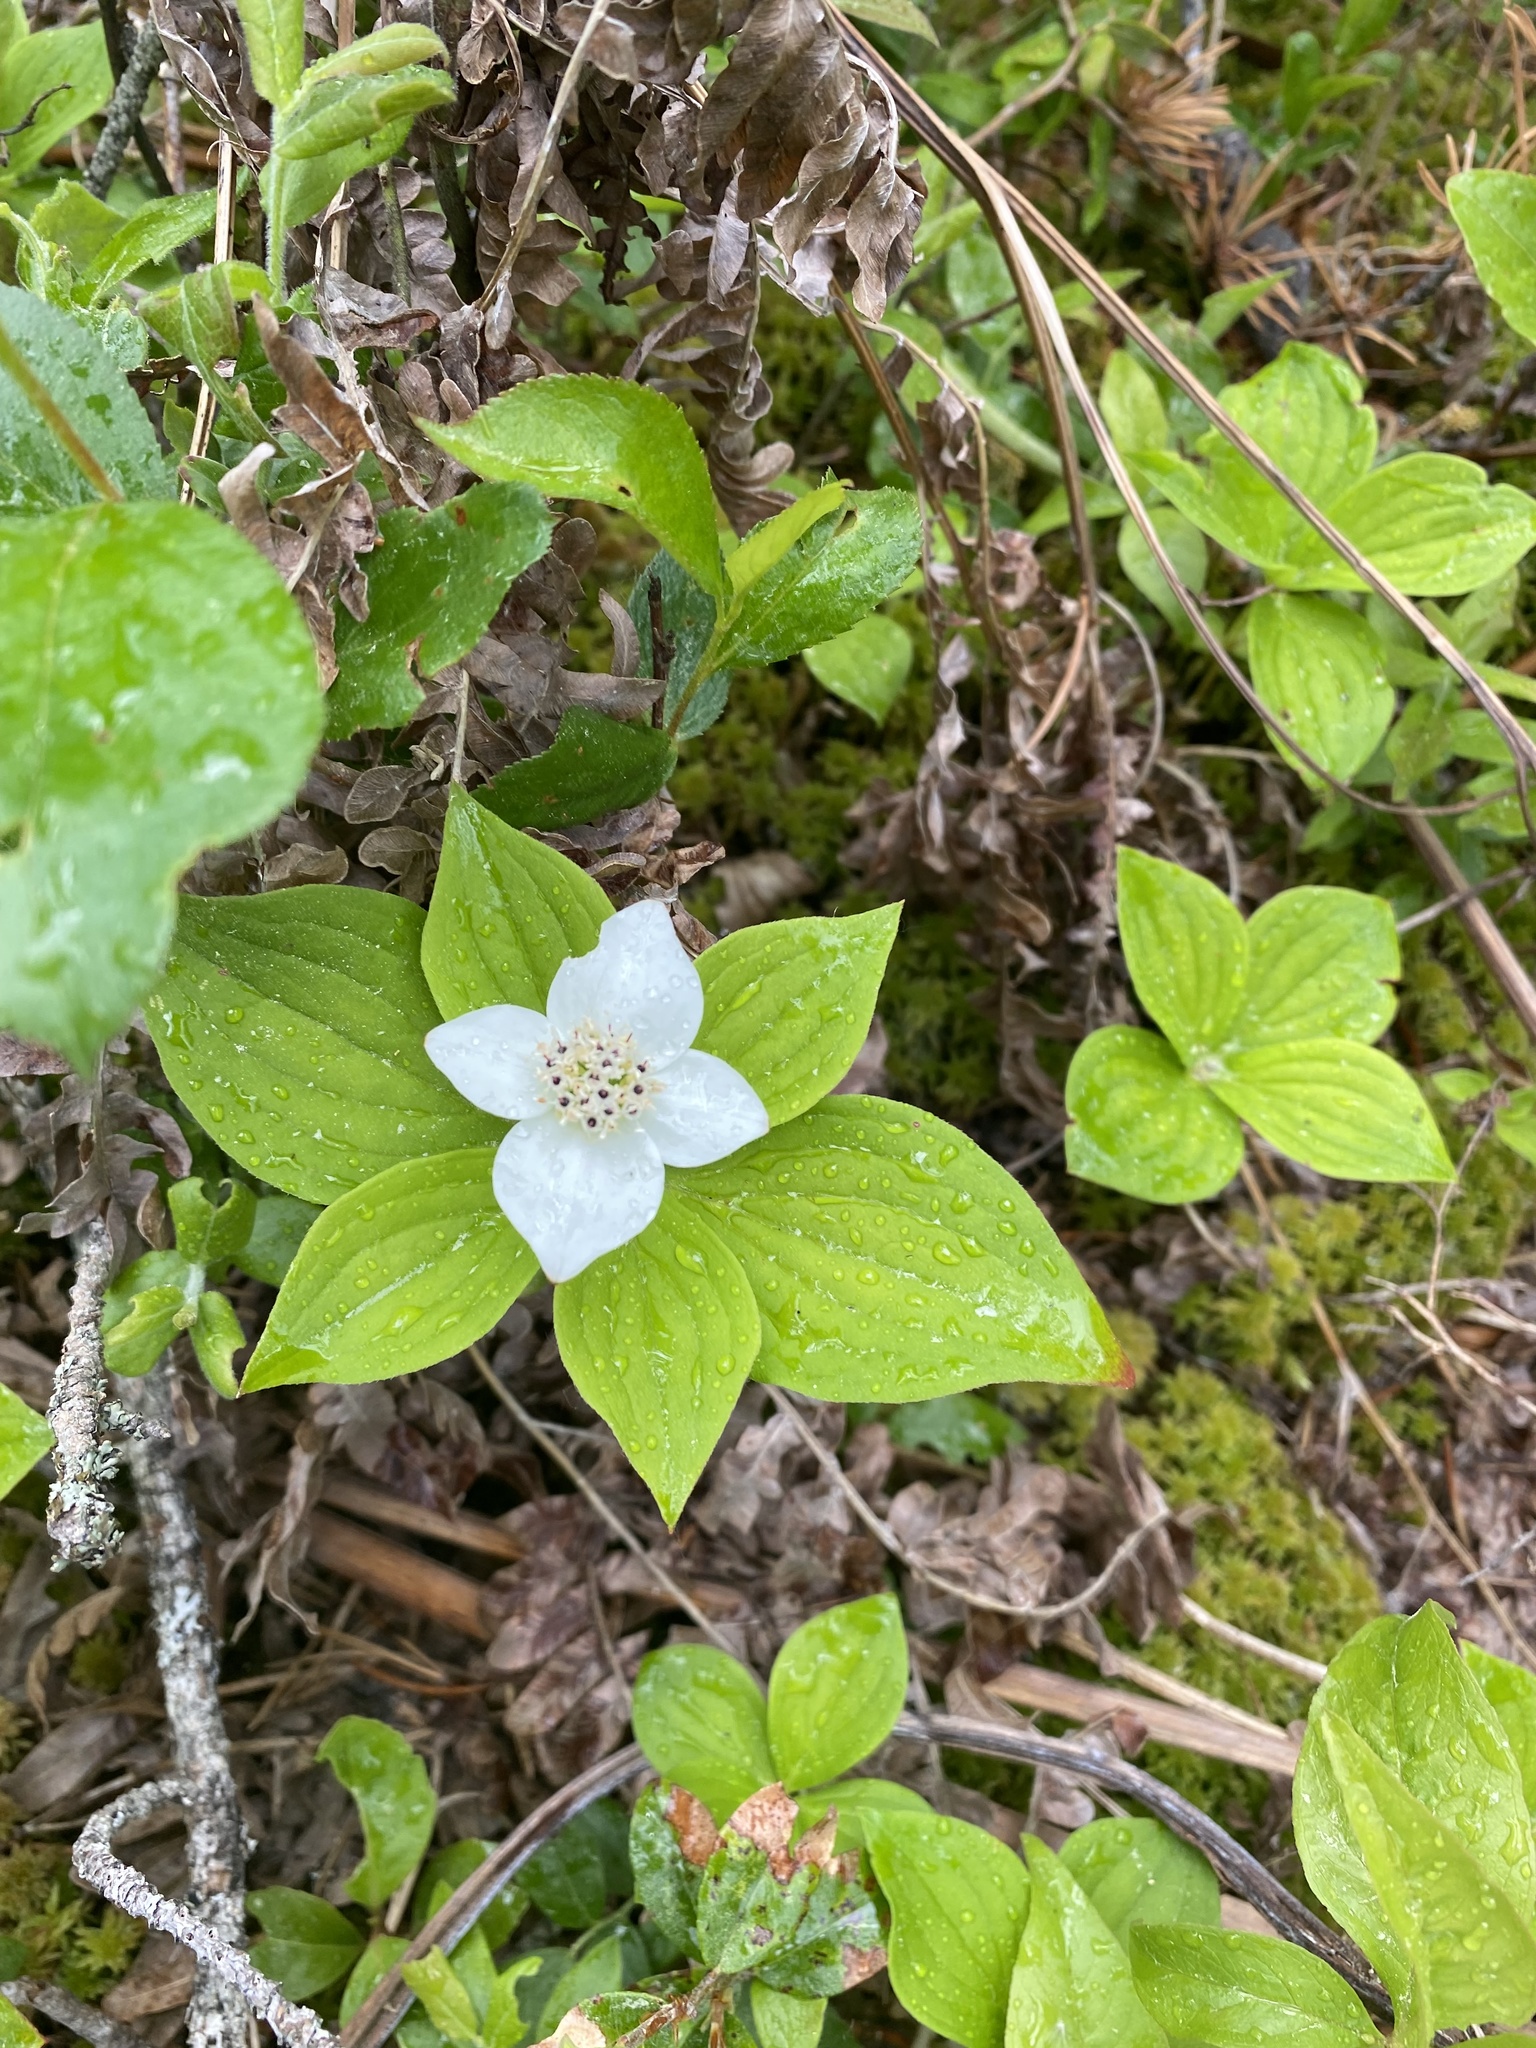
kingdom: Plantae
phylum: Tracheophyta
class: Magnoliopsida
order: Cornales
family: Cornaceae
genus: Cornus
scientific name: Cornus canadensis
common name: Creeping dogwood
